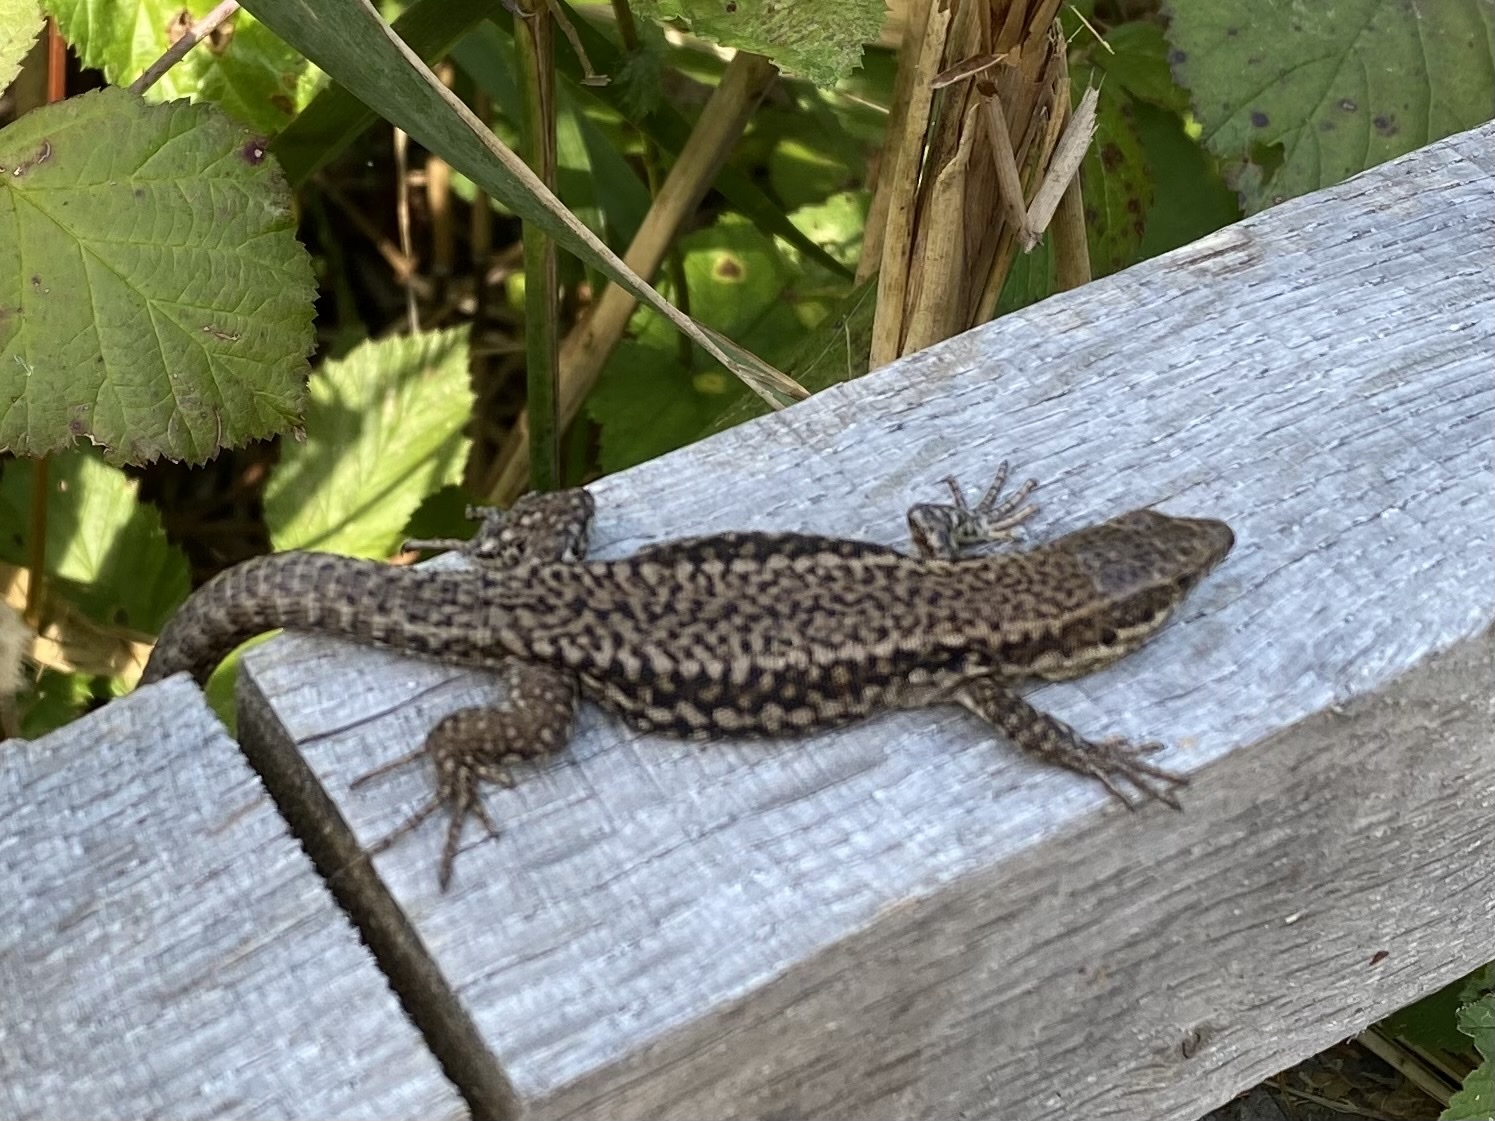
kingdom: Animalia
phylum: Chordata
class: Squamata
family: Lacertidae
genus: Podarcis
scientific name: Podarcis muralis
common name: Common wall lizard
